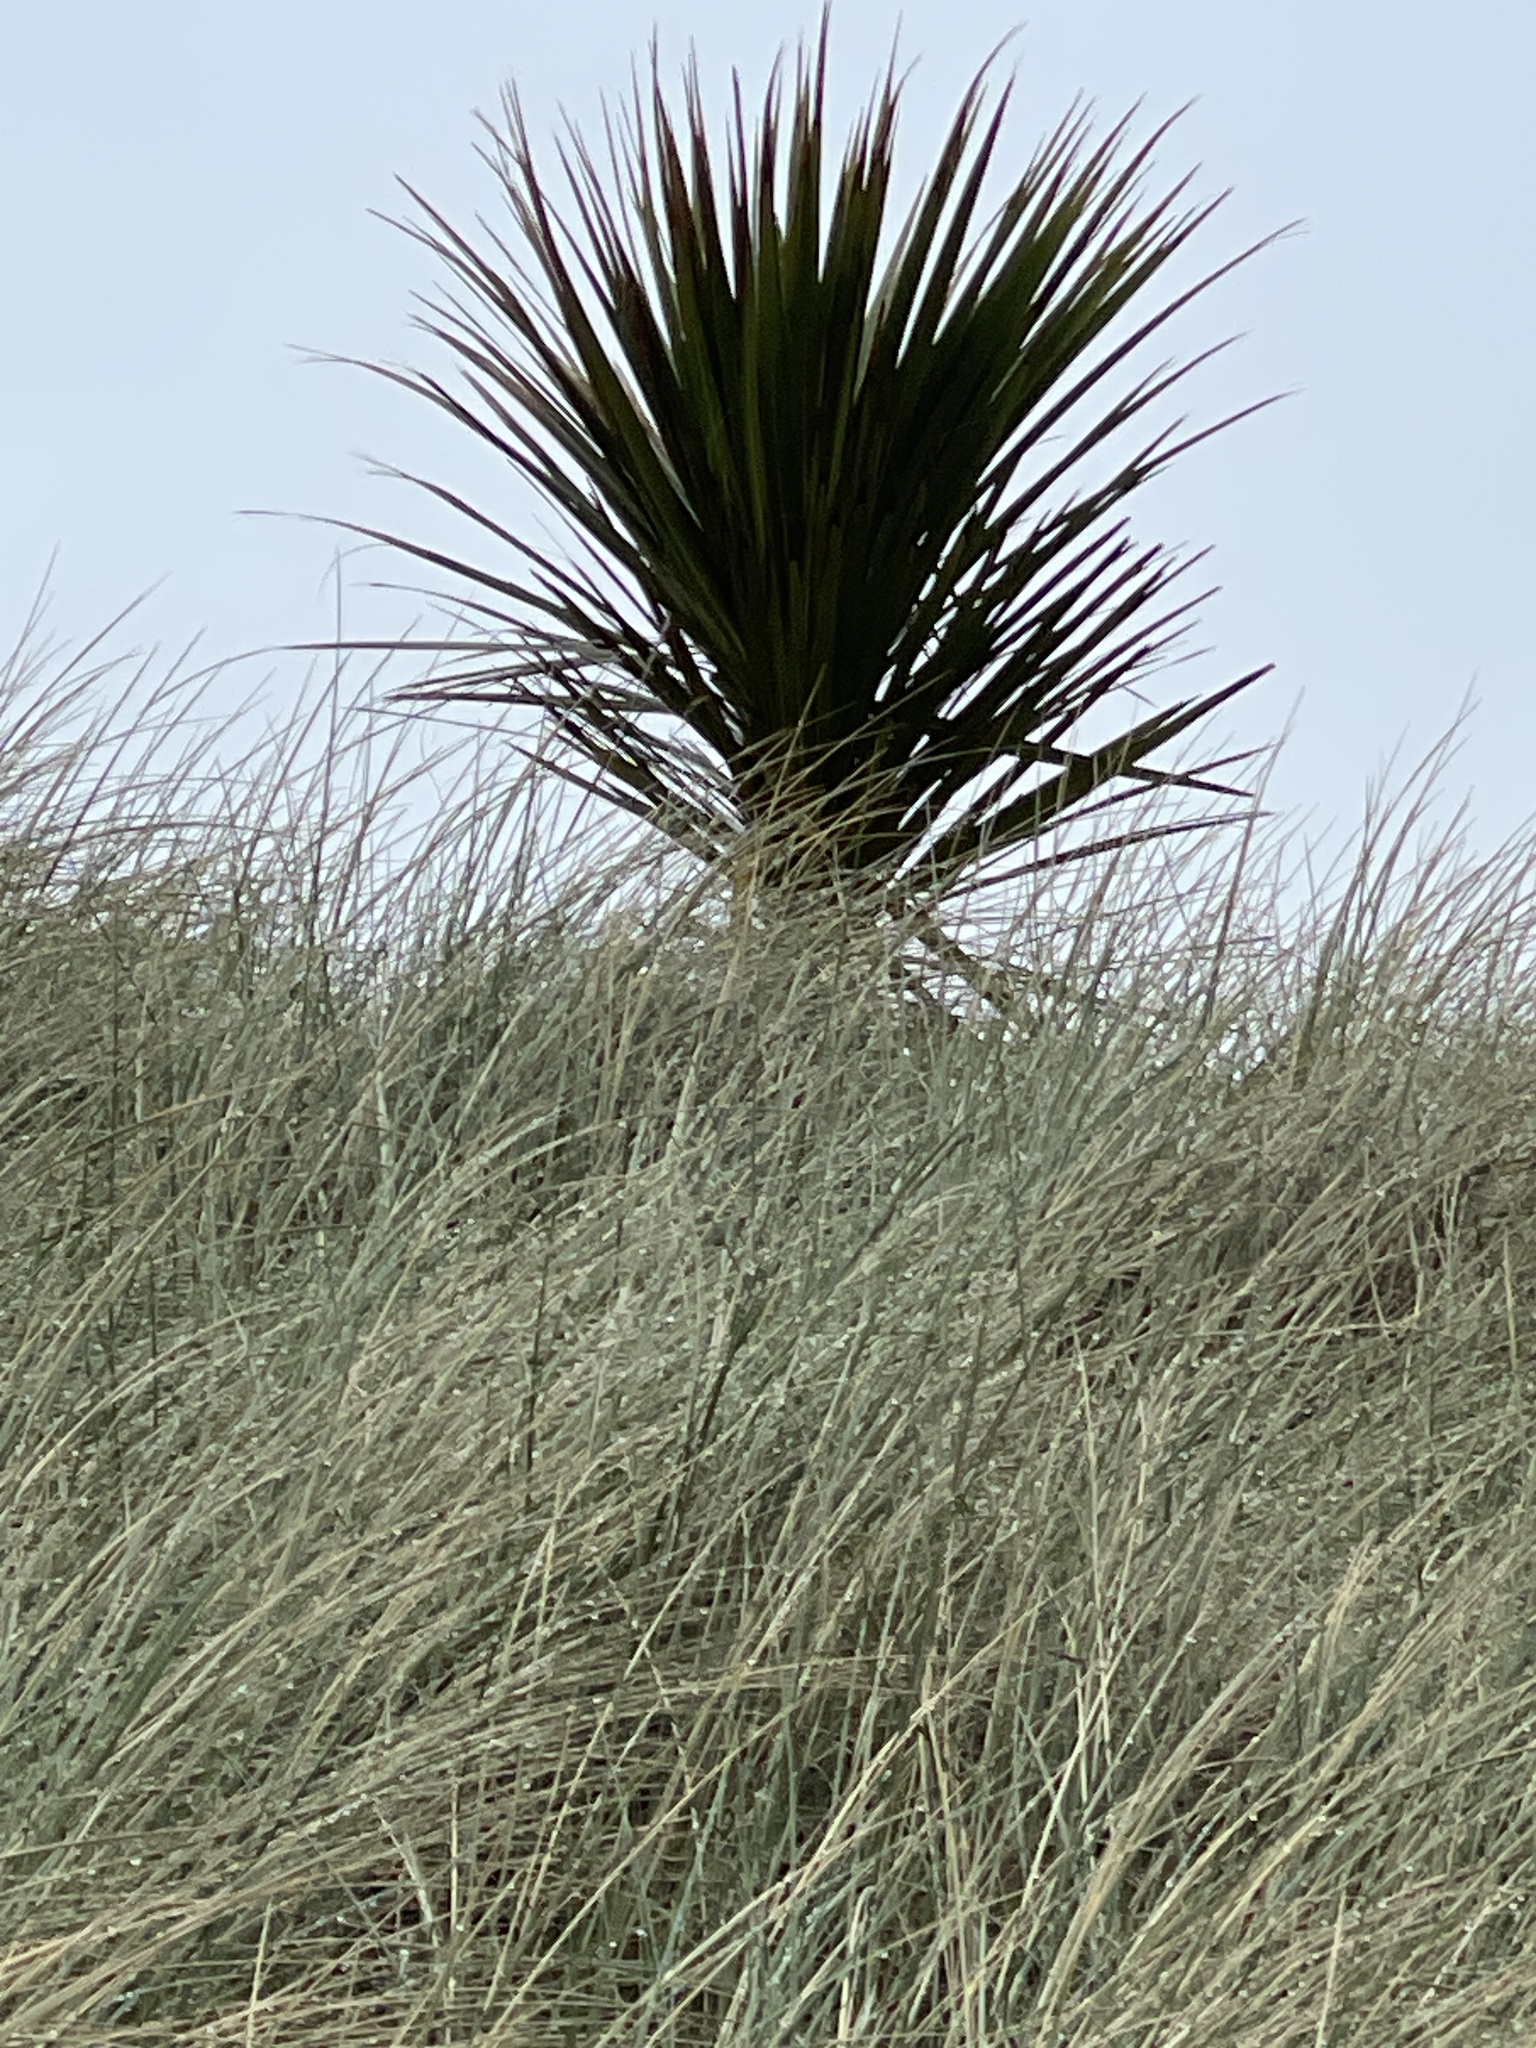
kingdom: Plantae
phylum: Tracheophyta
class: Liliopsida
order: Asparagales
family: Asparagaceae
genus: Cordyline
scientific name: Cordyline australis
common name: Cabbage-palm
